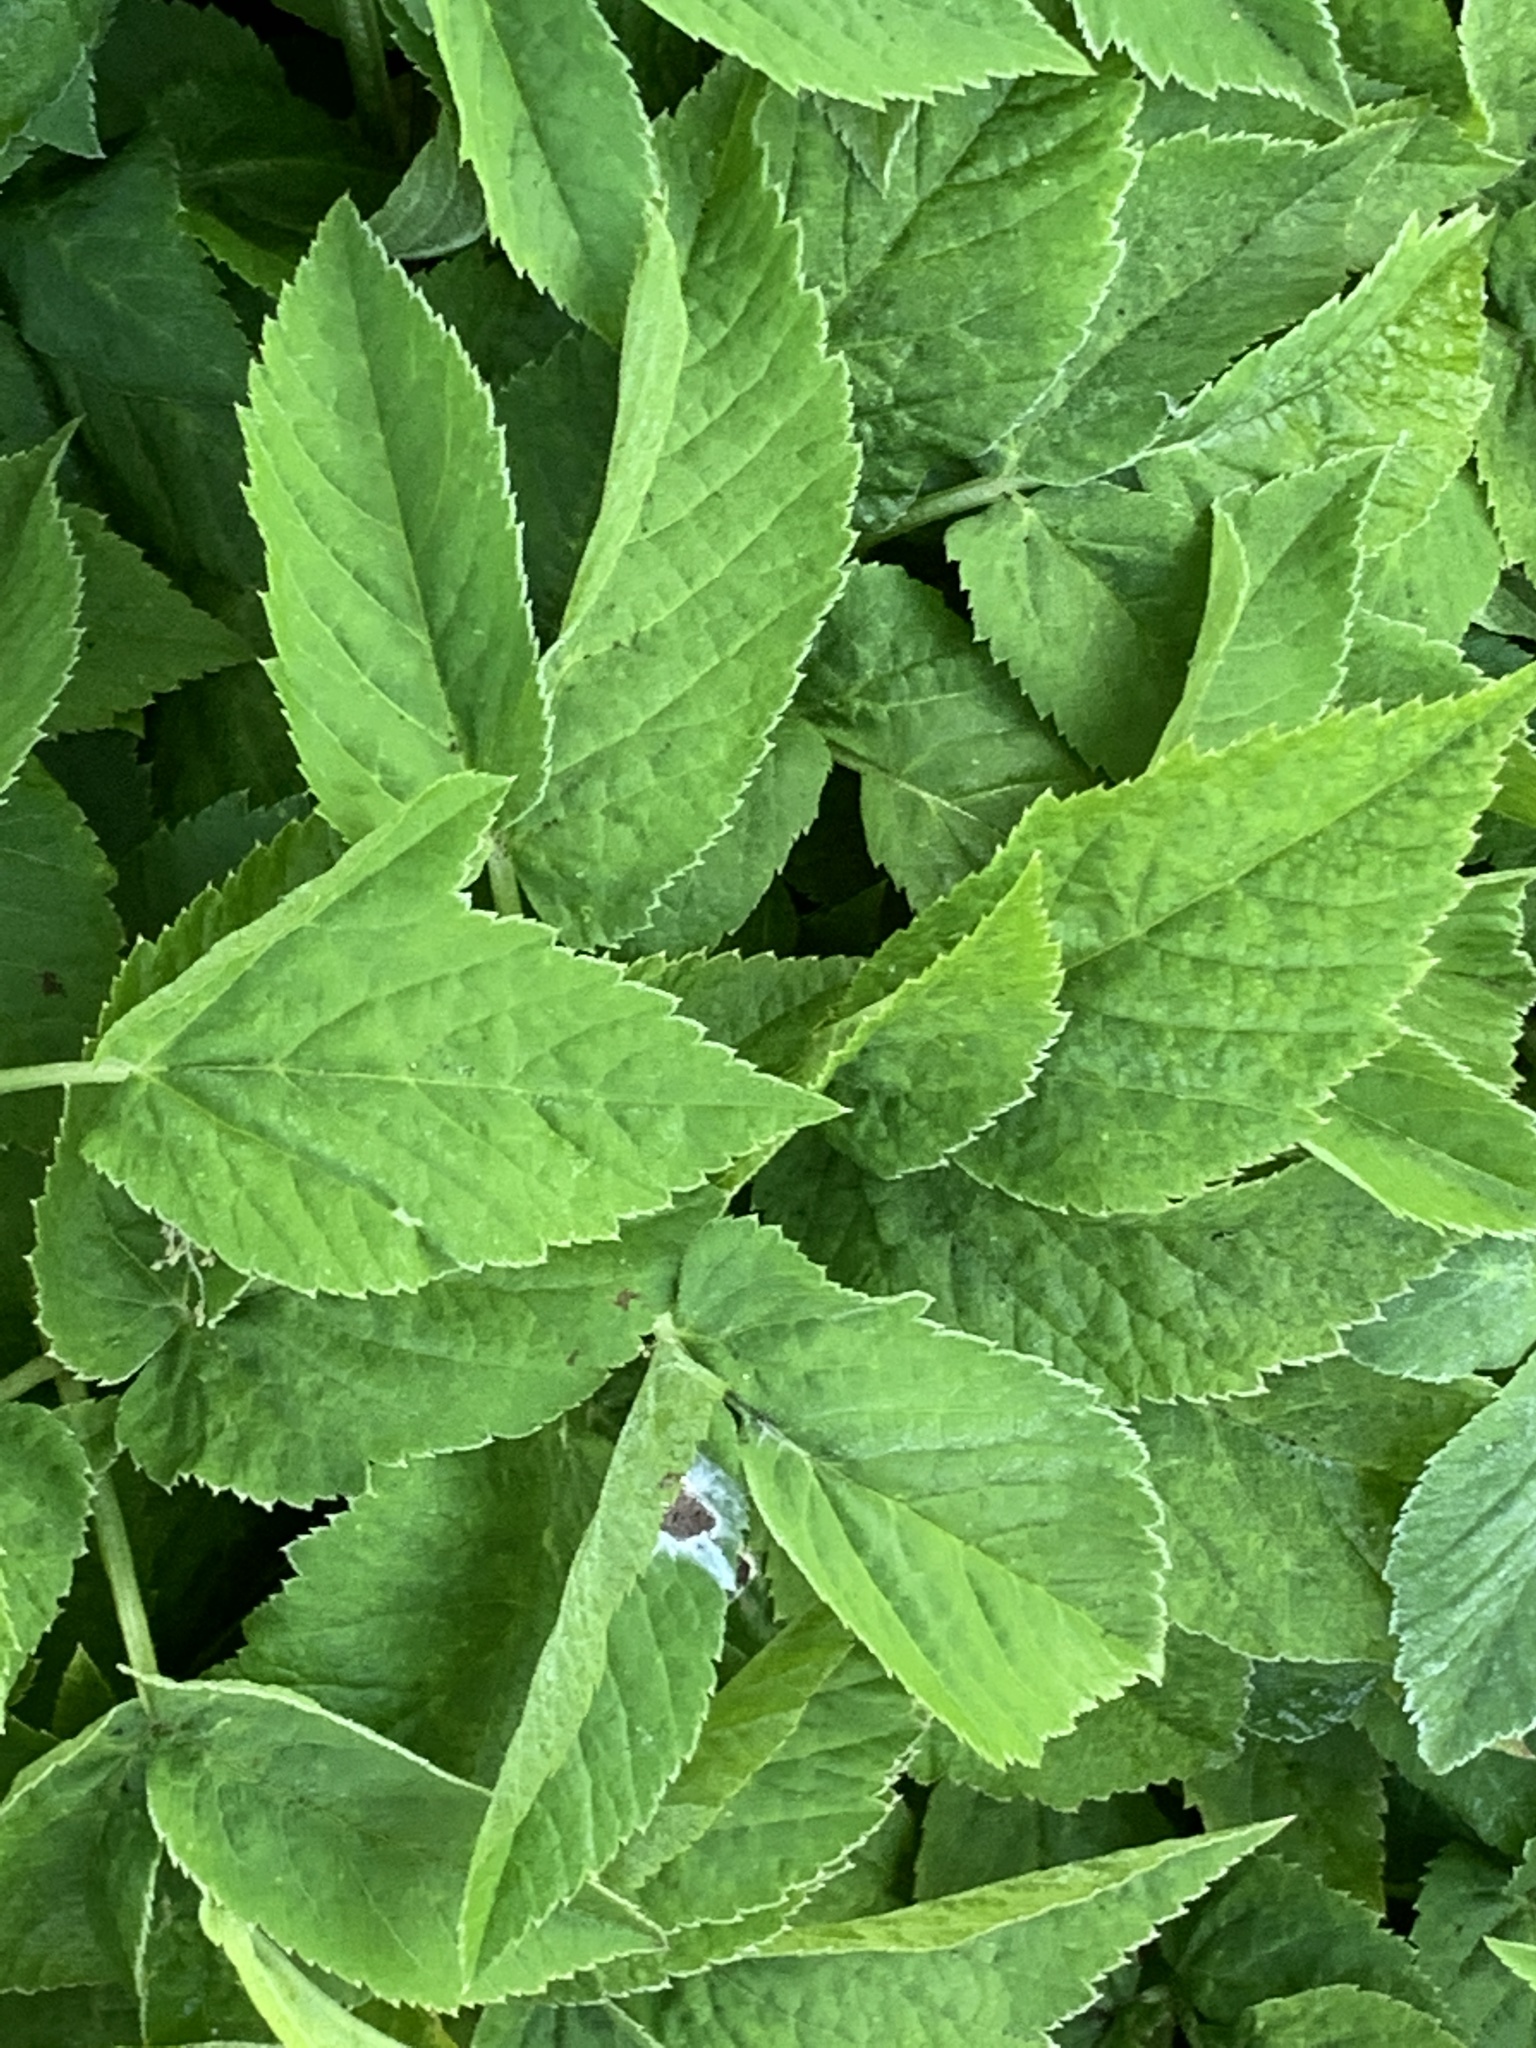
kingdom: Plantae
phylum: Tracheophyta
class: Magnoliopsida
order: Apiales
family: Apiaceae
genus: Aegopodium
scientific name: Aegopodium podagraria
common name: Ground-elder
